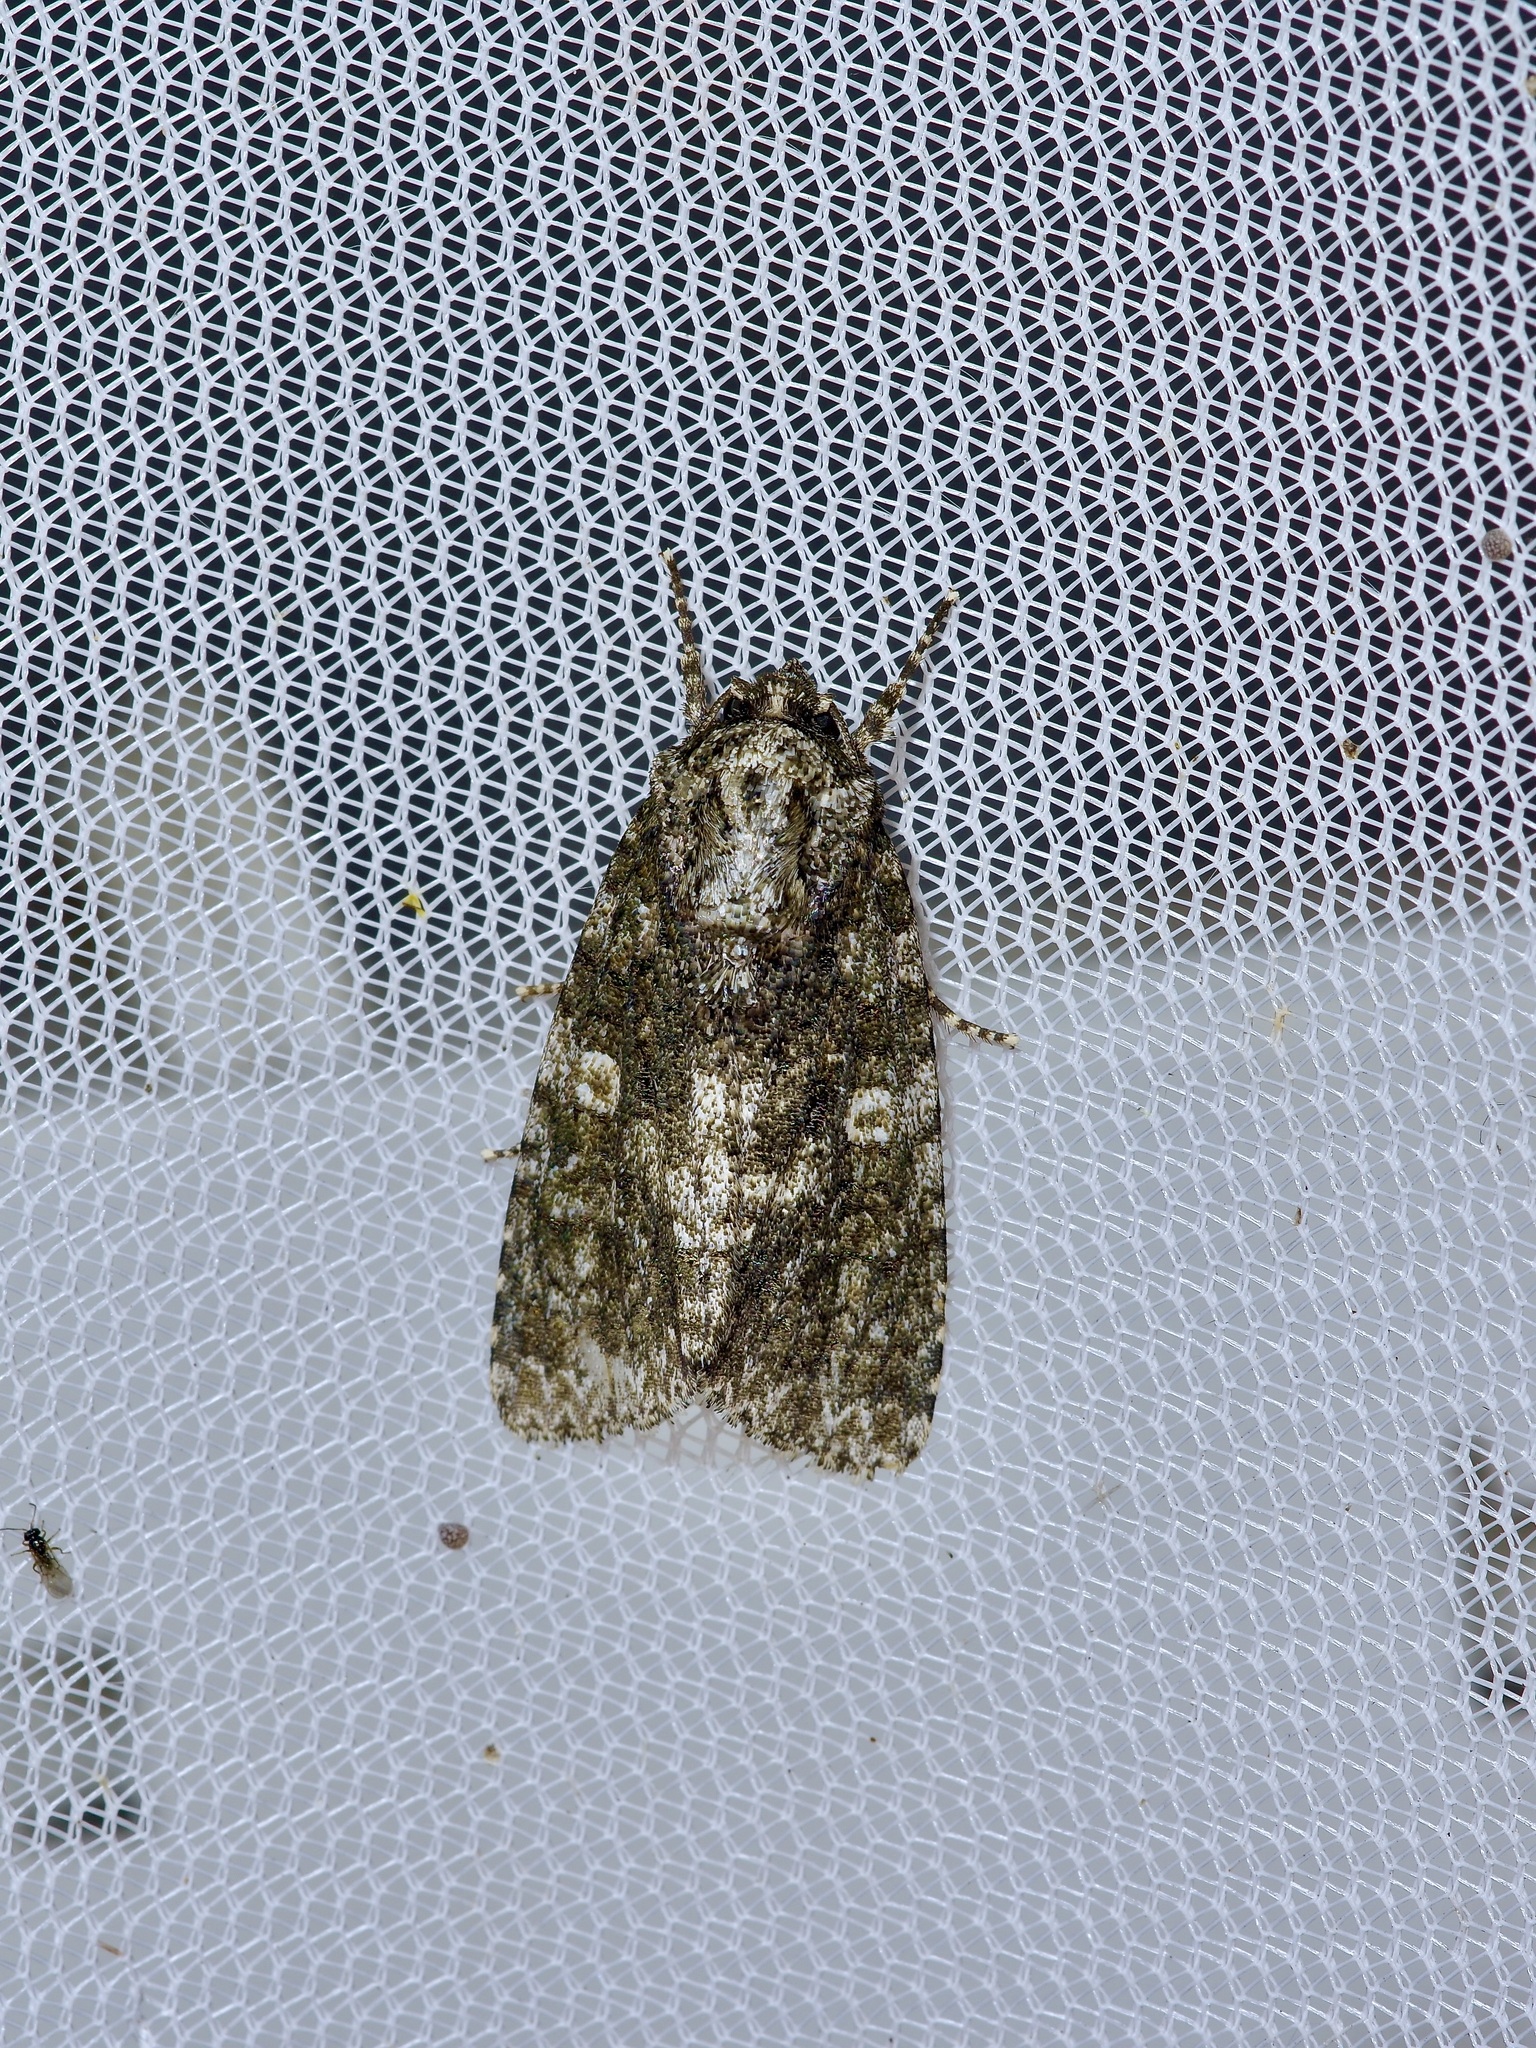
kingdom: Animalia
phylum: Arthropoda
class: Insecta
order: Lepidoptera
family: Noctuidae
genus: Acronicta
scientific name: Acronicta afflicta
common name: Afflicted dagger moth
